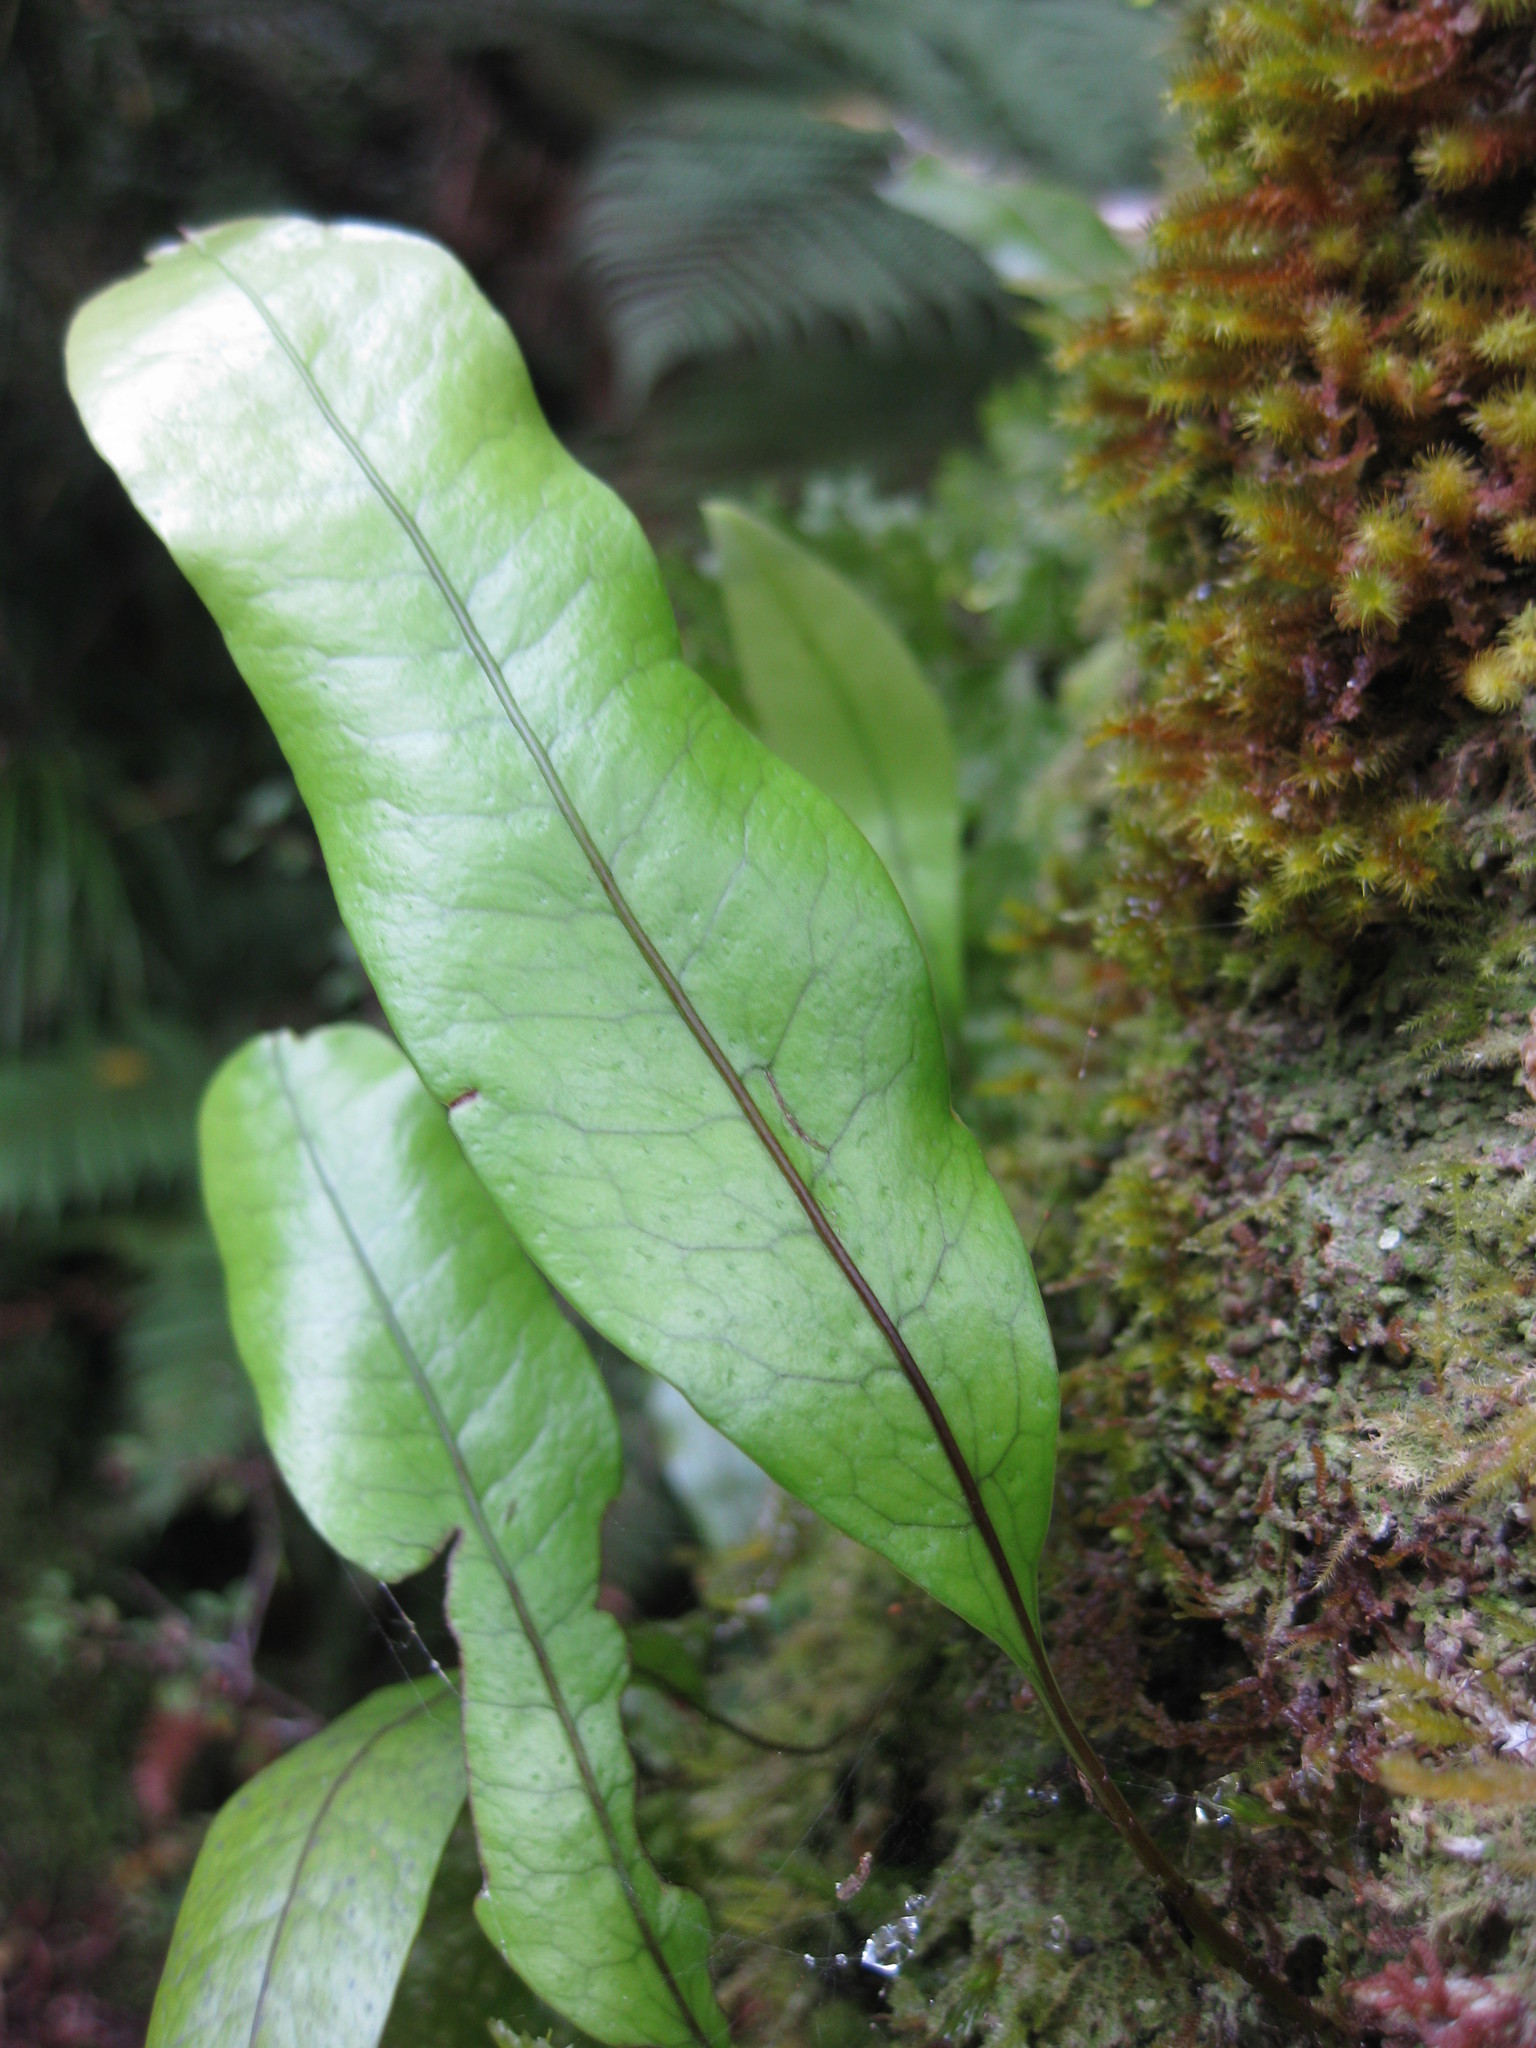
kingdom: Plantae
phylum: Tracheophyta
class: Polypodiopsida
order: Polypodiales
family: Polypodiaceae
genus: Lecanopteris
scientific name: Lecanopteris pustulata
